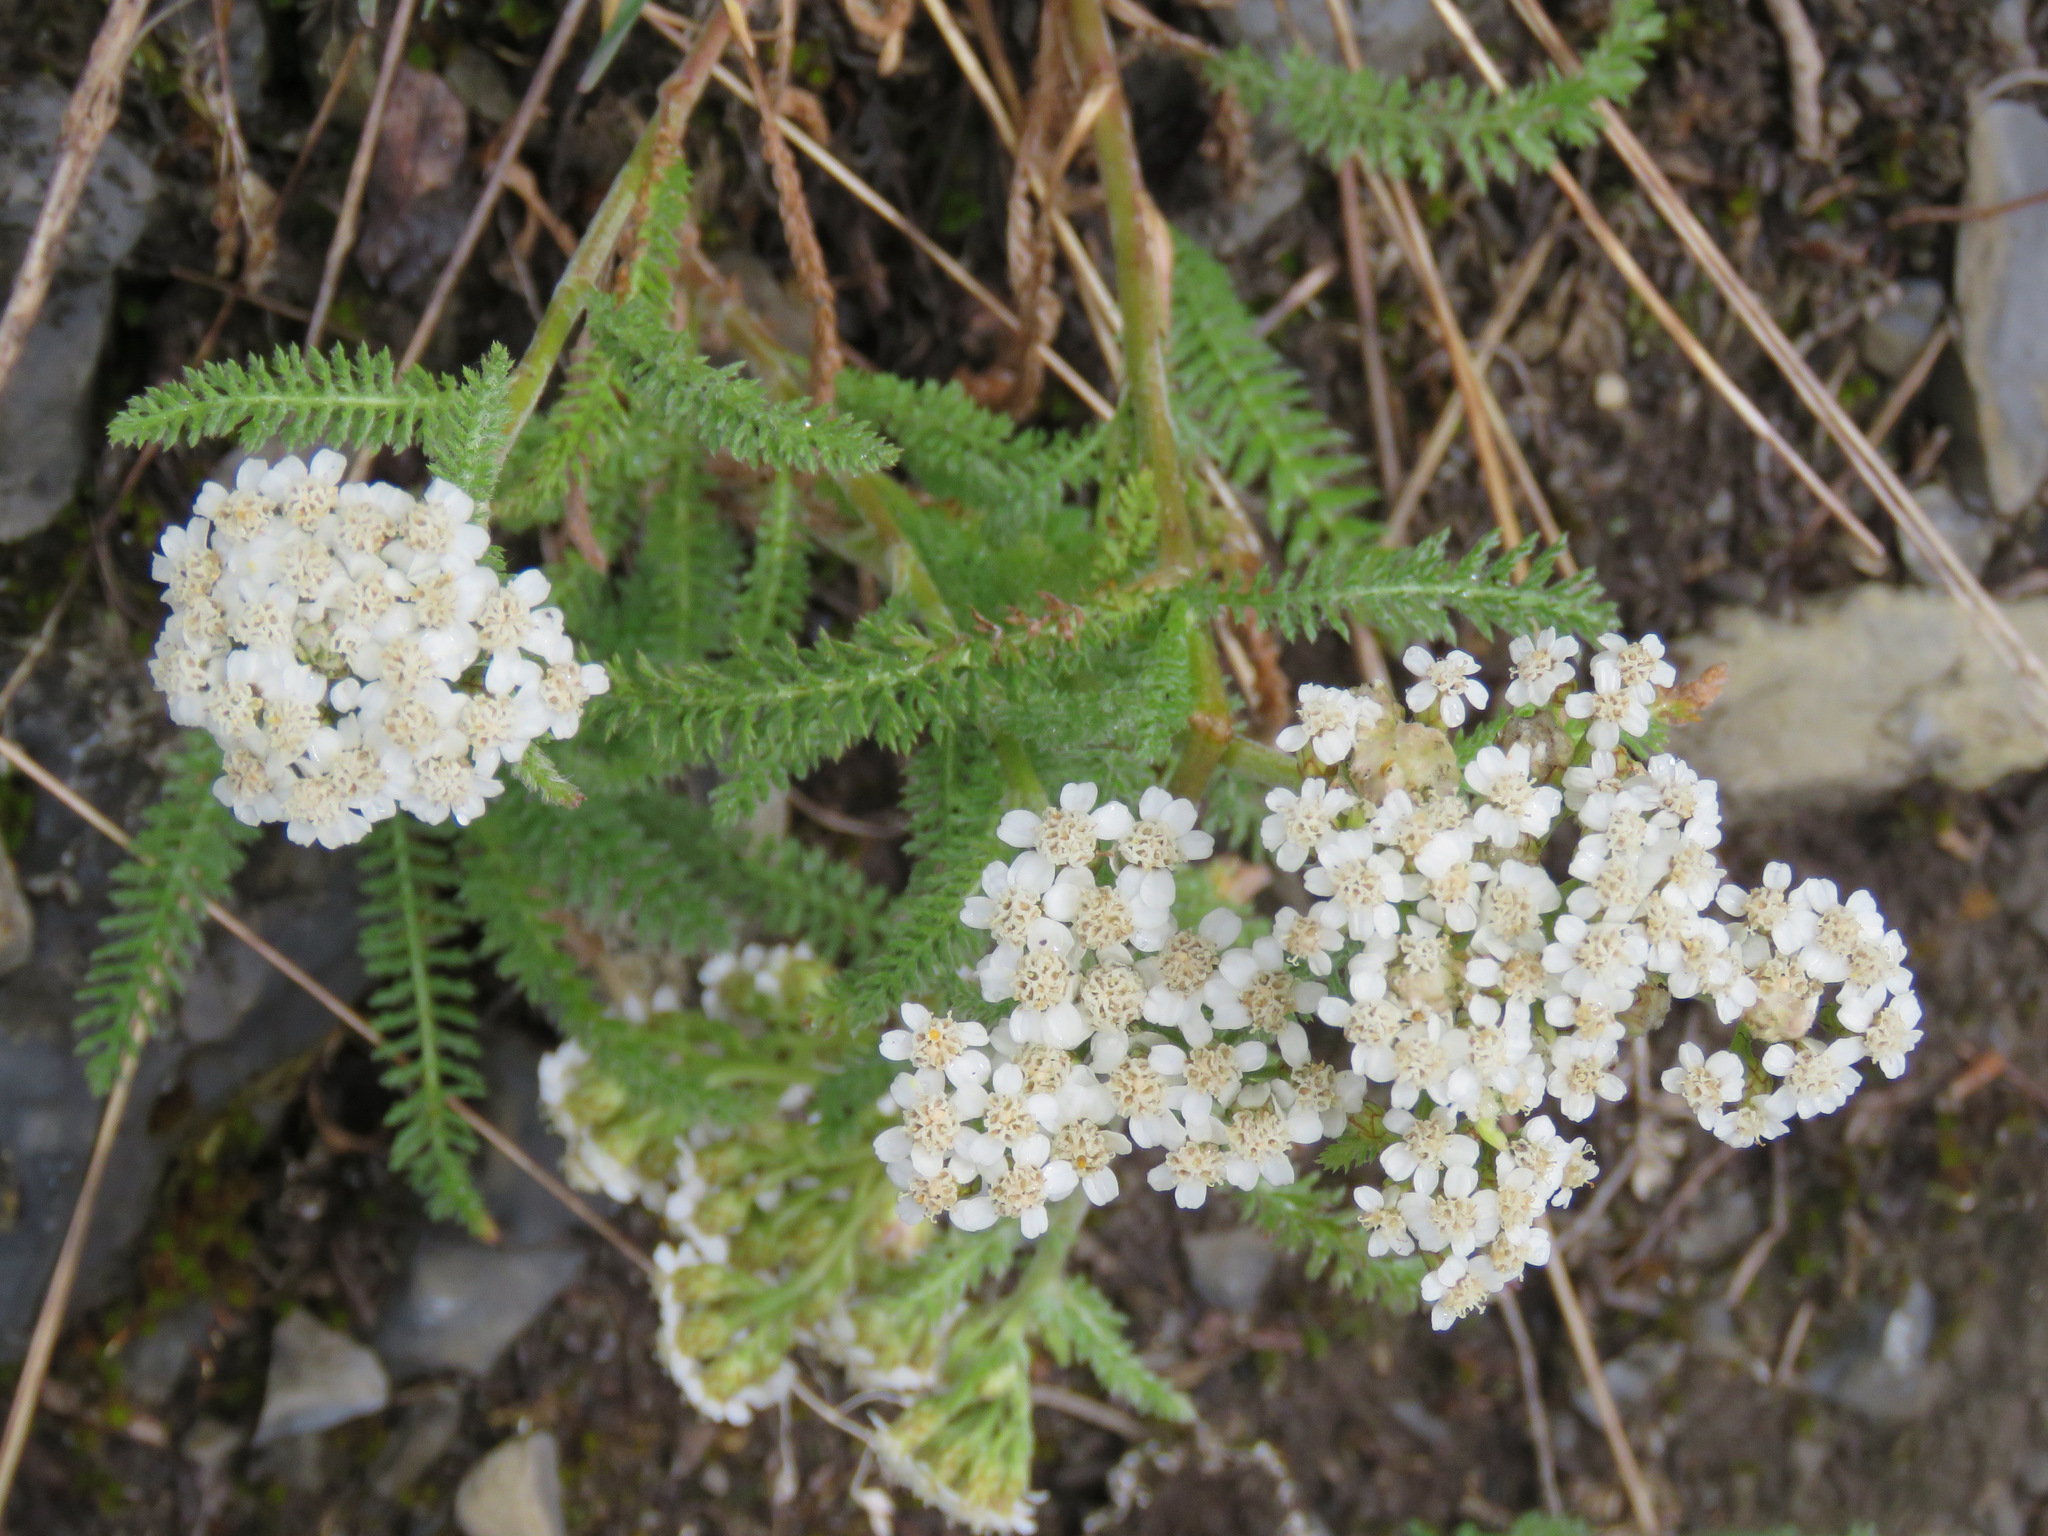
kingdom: Plantae
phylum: Tracheophyta
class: Magnoliopsida
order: Asterales
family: Asteraceae
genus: Achillea
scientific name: Achillea millefolium
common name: Yarrow
